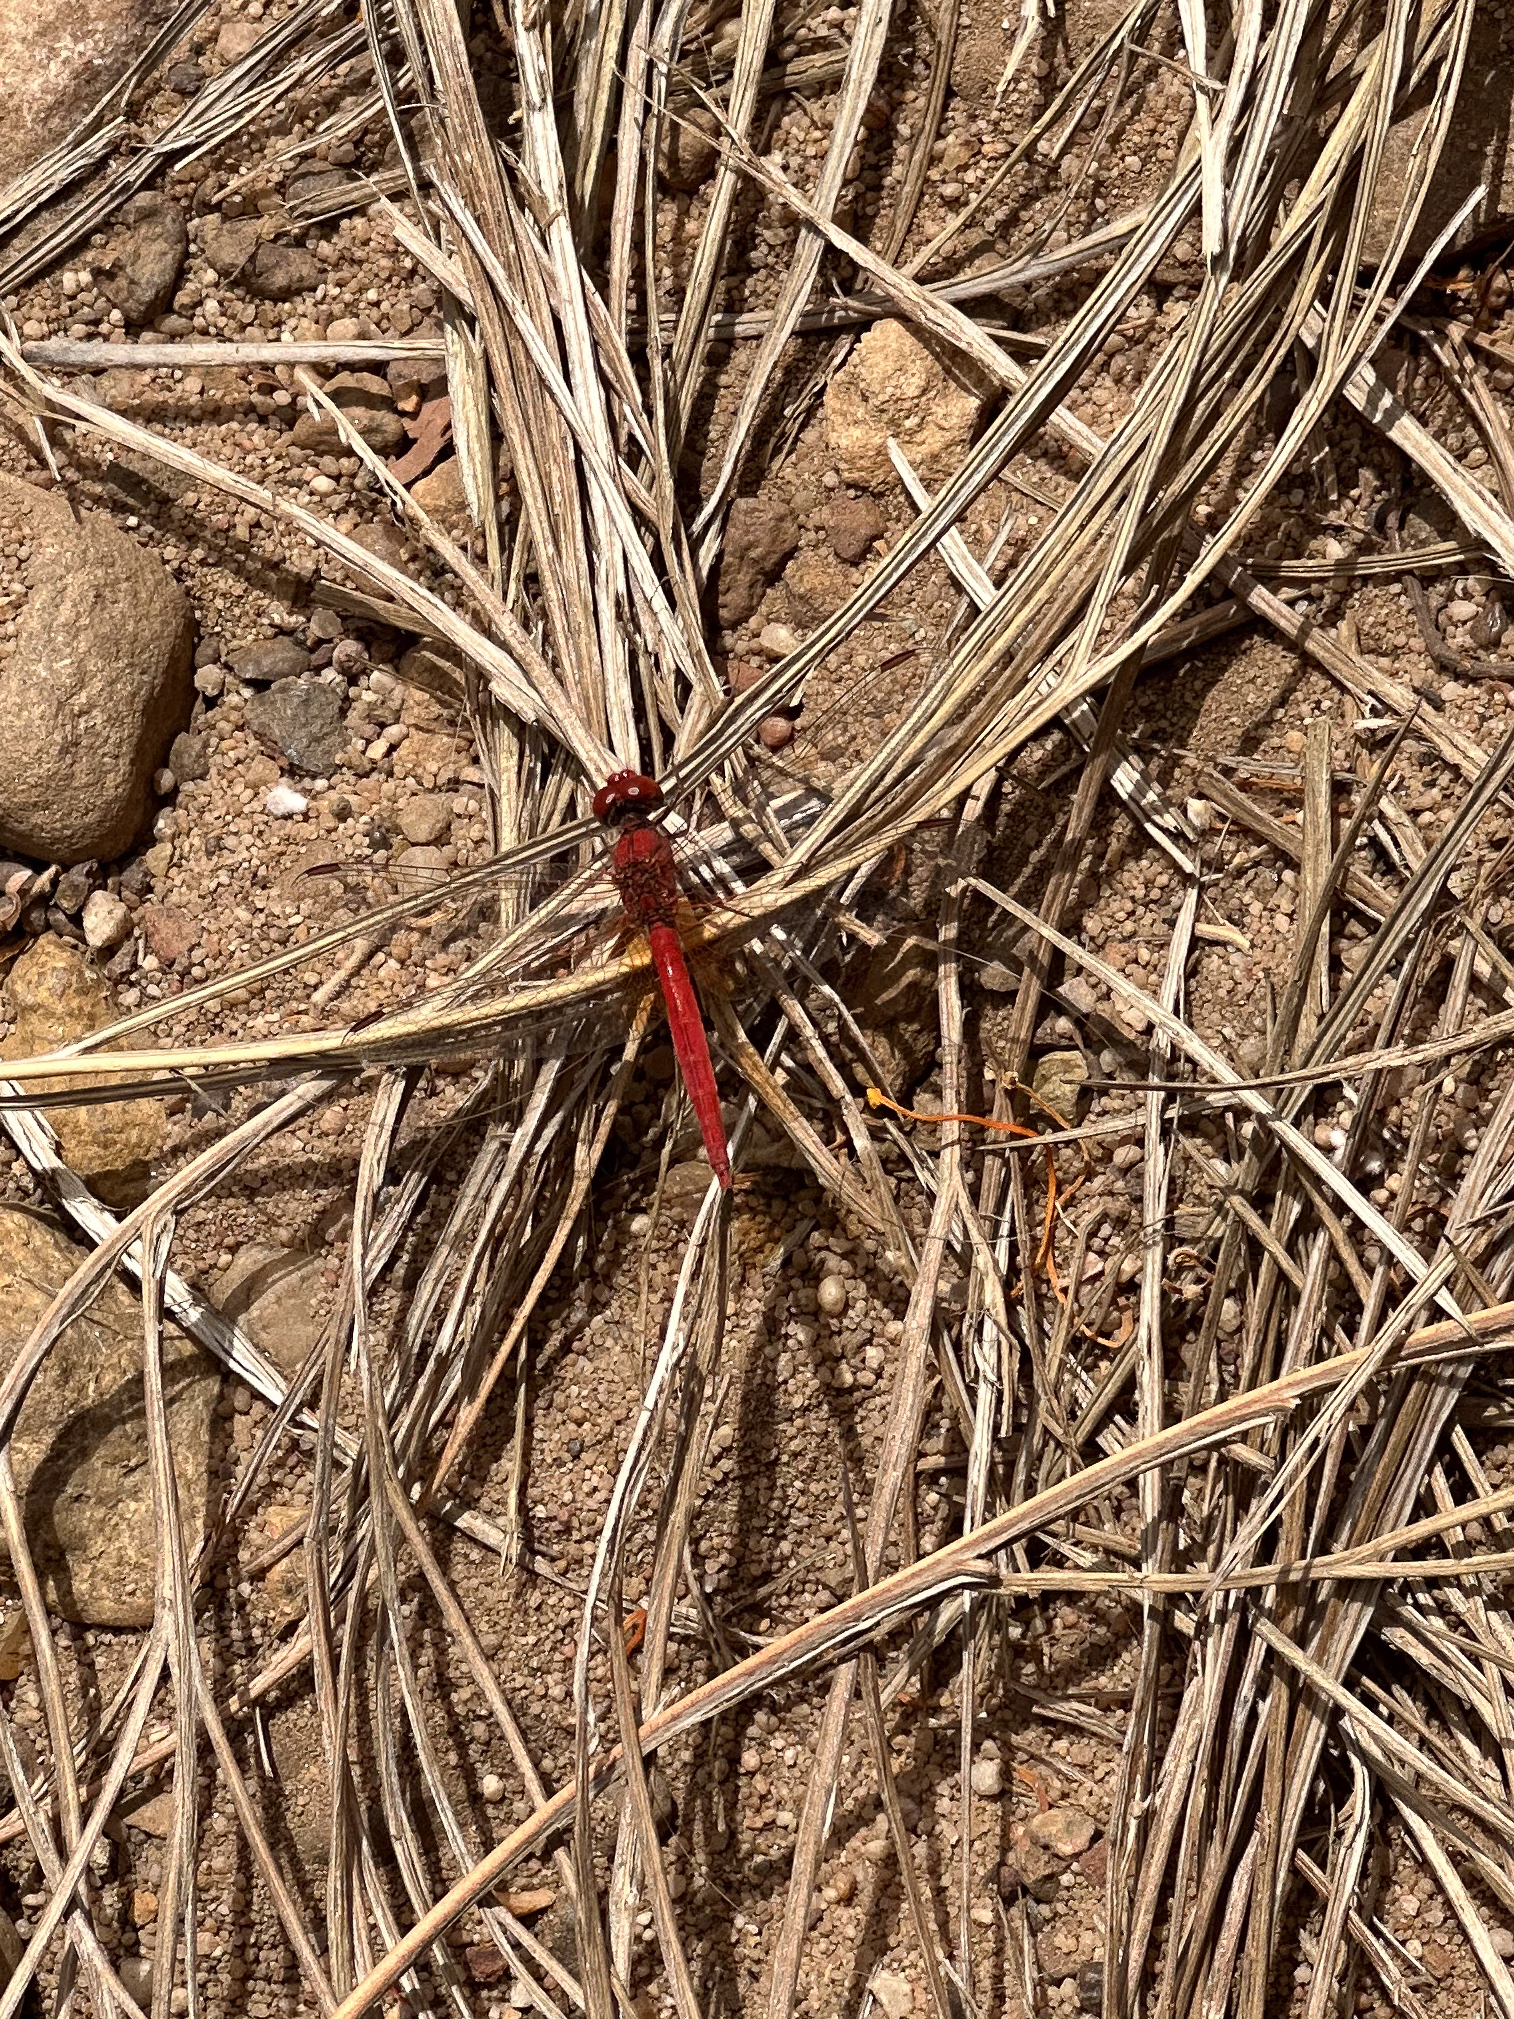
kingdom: Animalia
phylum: Arthropoda
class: Insecta
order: Odonata
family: Libellulidae
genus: Diplacodes
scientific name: Diplacodes haematodes
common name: Scarlet percher
